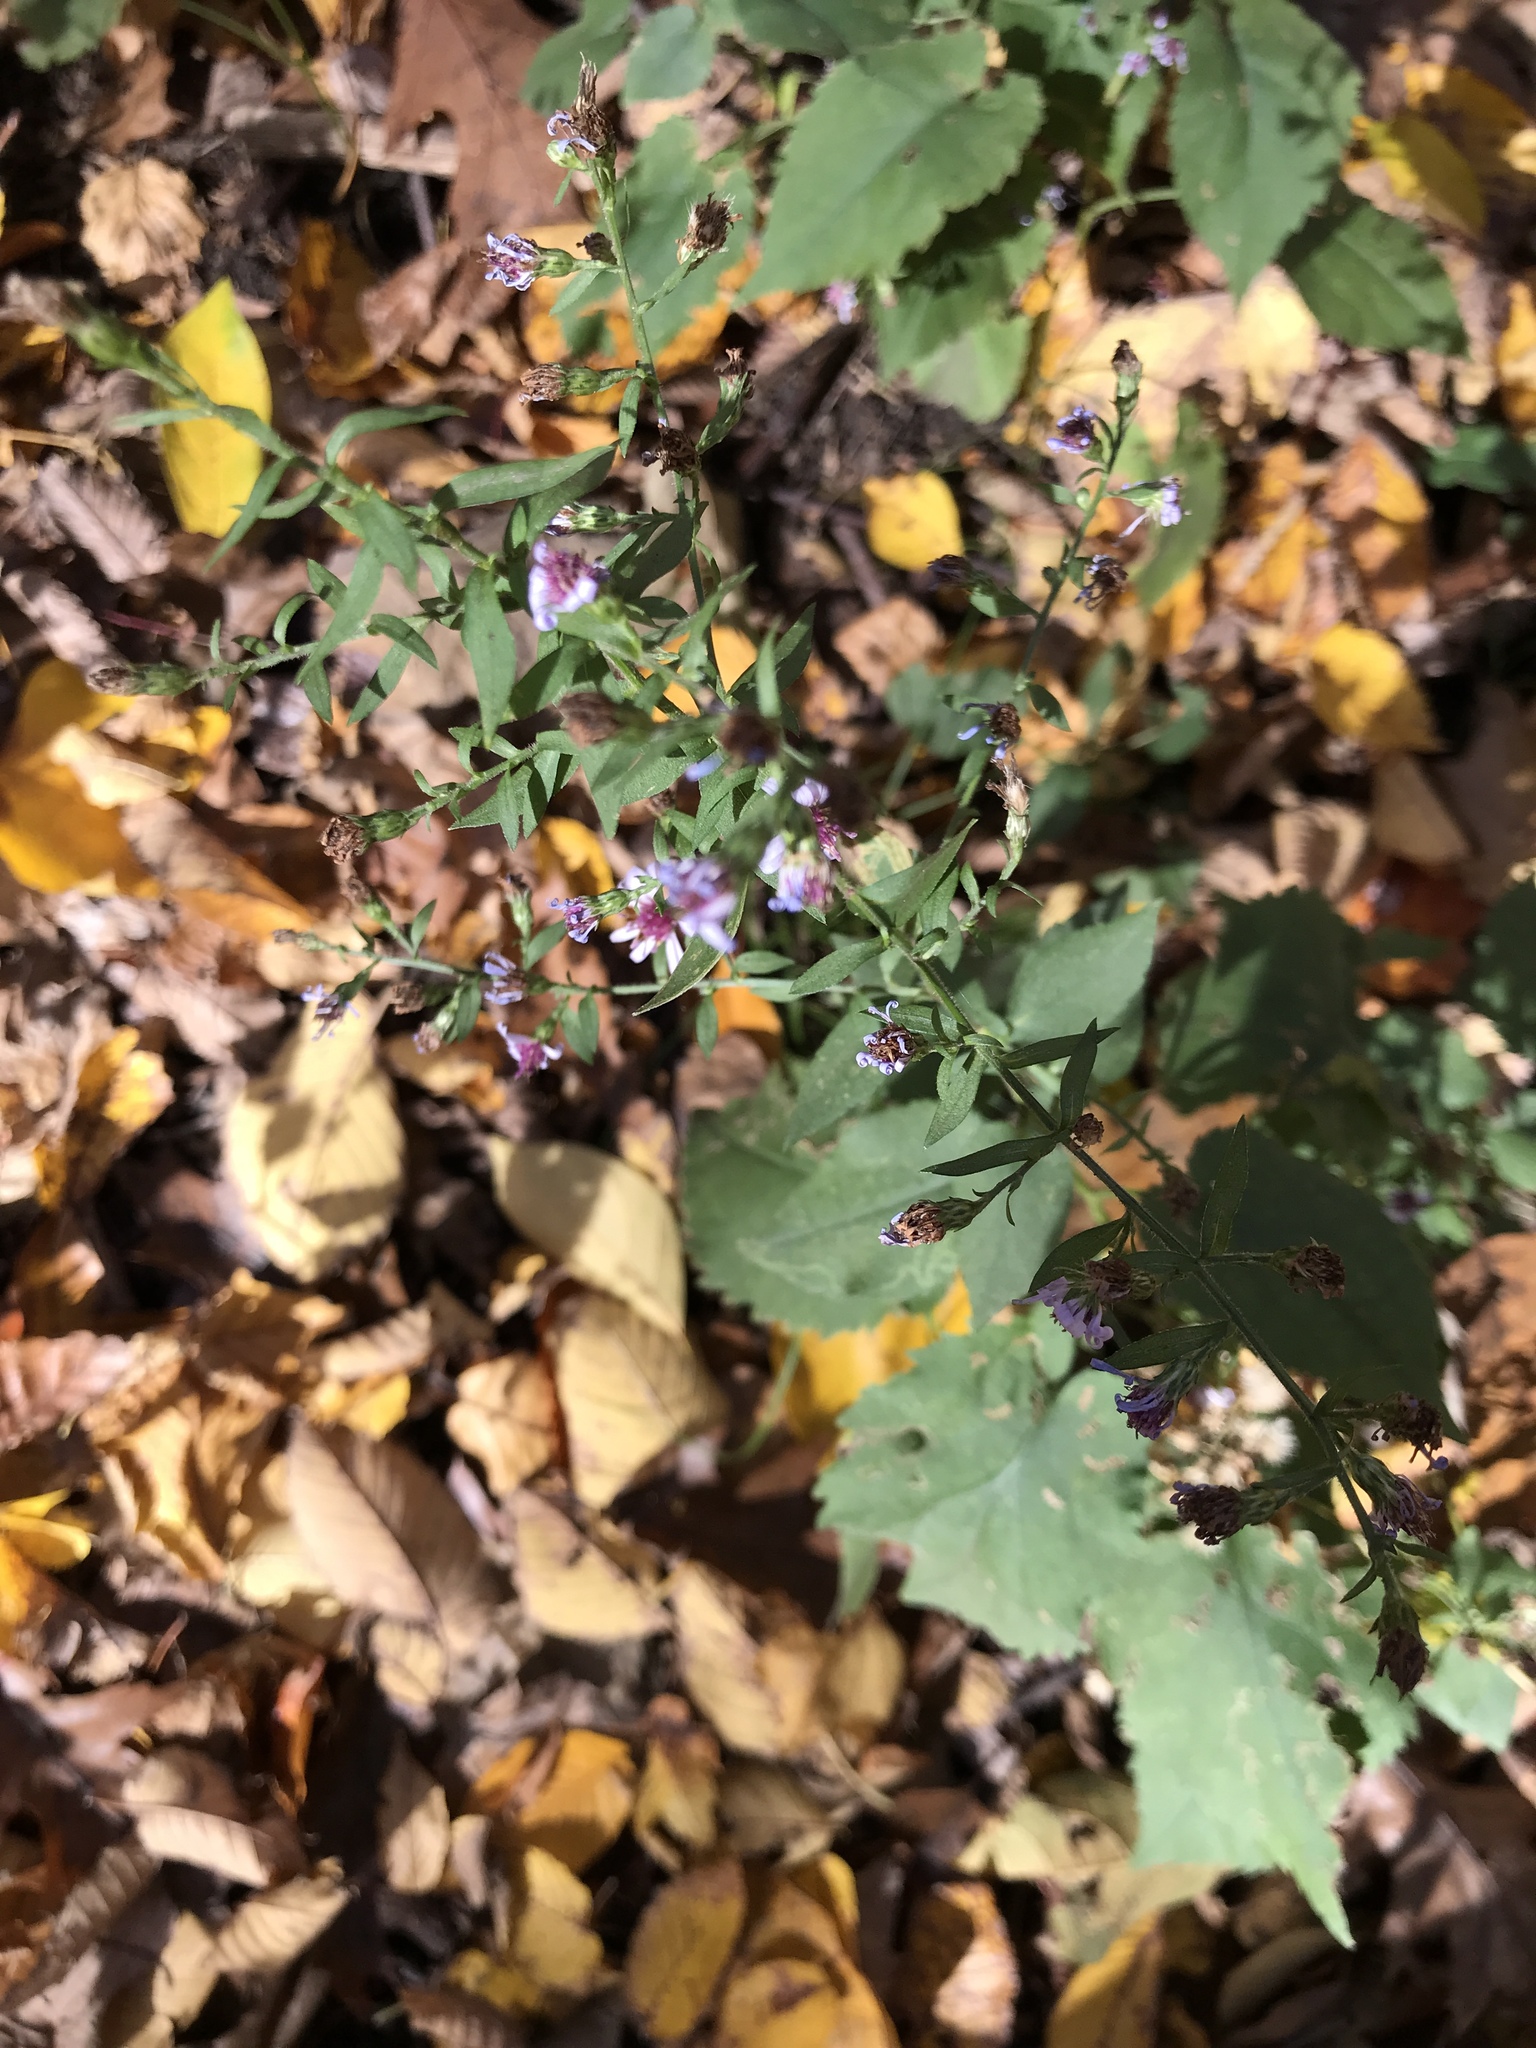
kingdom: Plantae
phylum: Tracheophyta
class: Magnoliopsida
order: Asterales
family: Asteraceae
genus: Symphyotrichum
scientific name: Symphyotrichum cordifolium
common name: Beeweed
